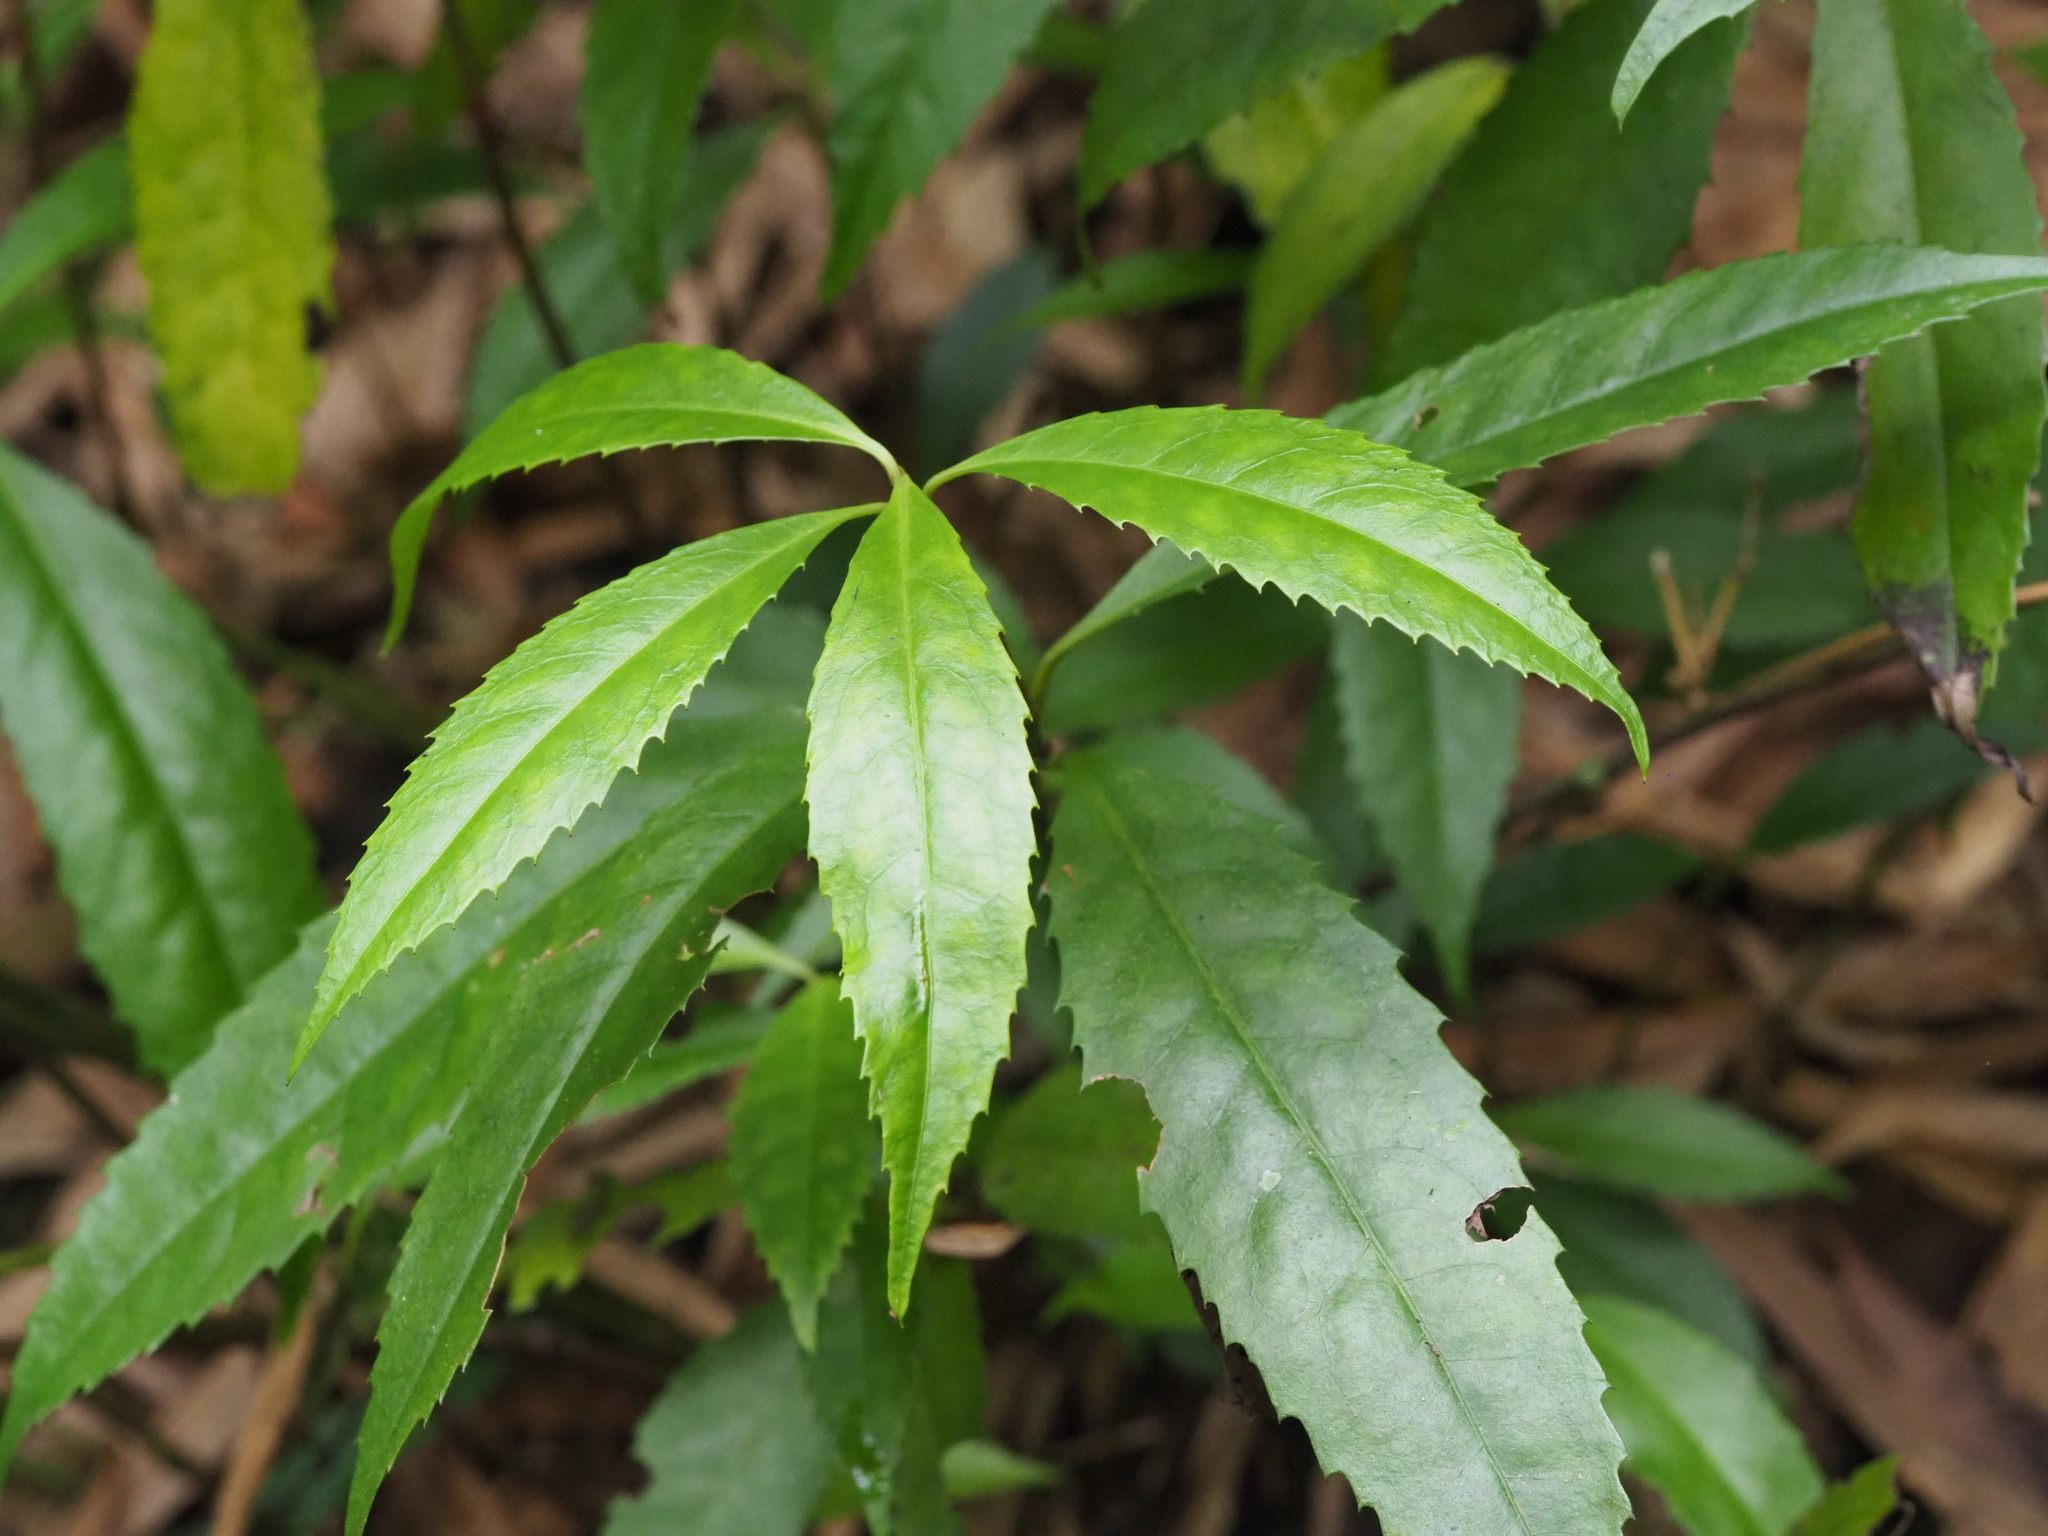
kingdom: Plantae
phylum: Tracheophyta
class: Magnoliopsida
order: Chloranthales
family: Chloranthaceae
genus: Sarcandra
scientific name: Sarcandra glabra
